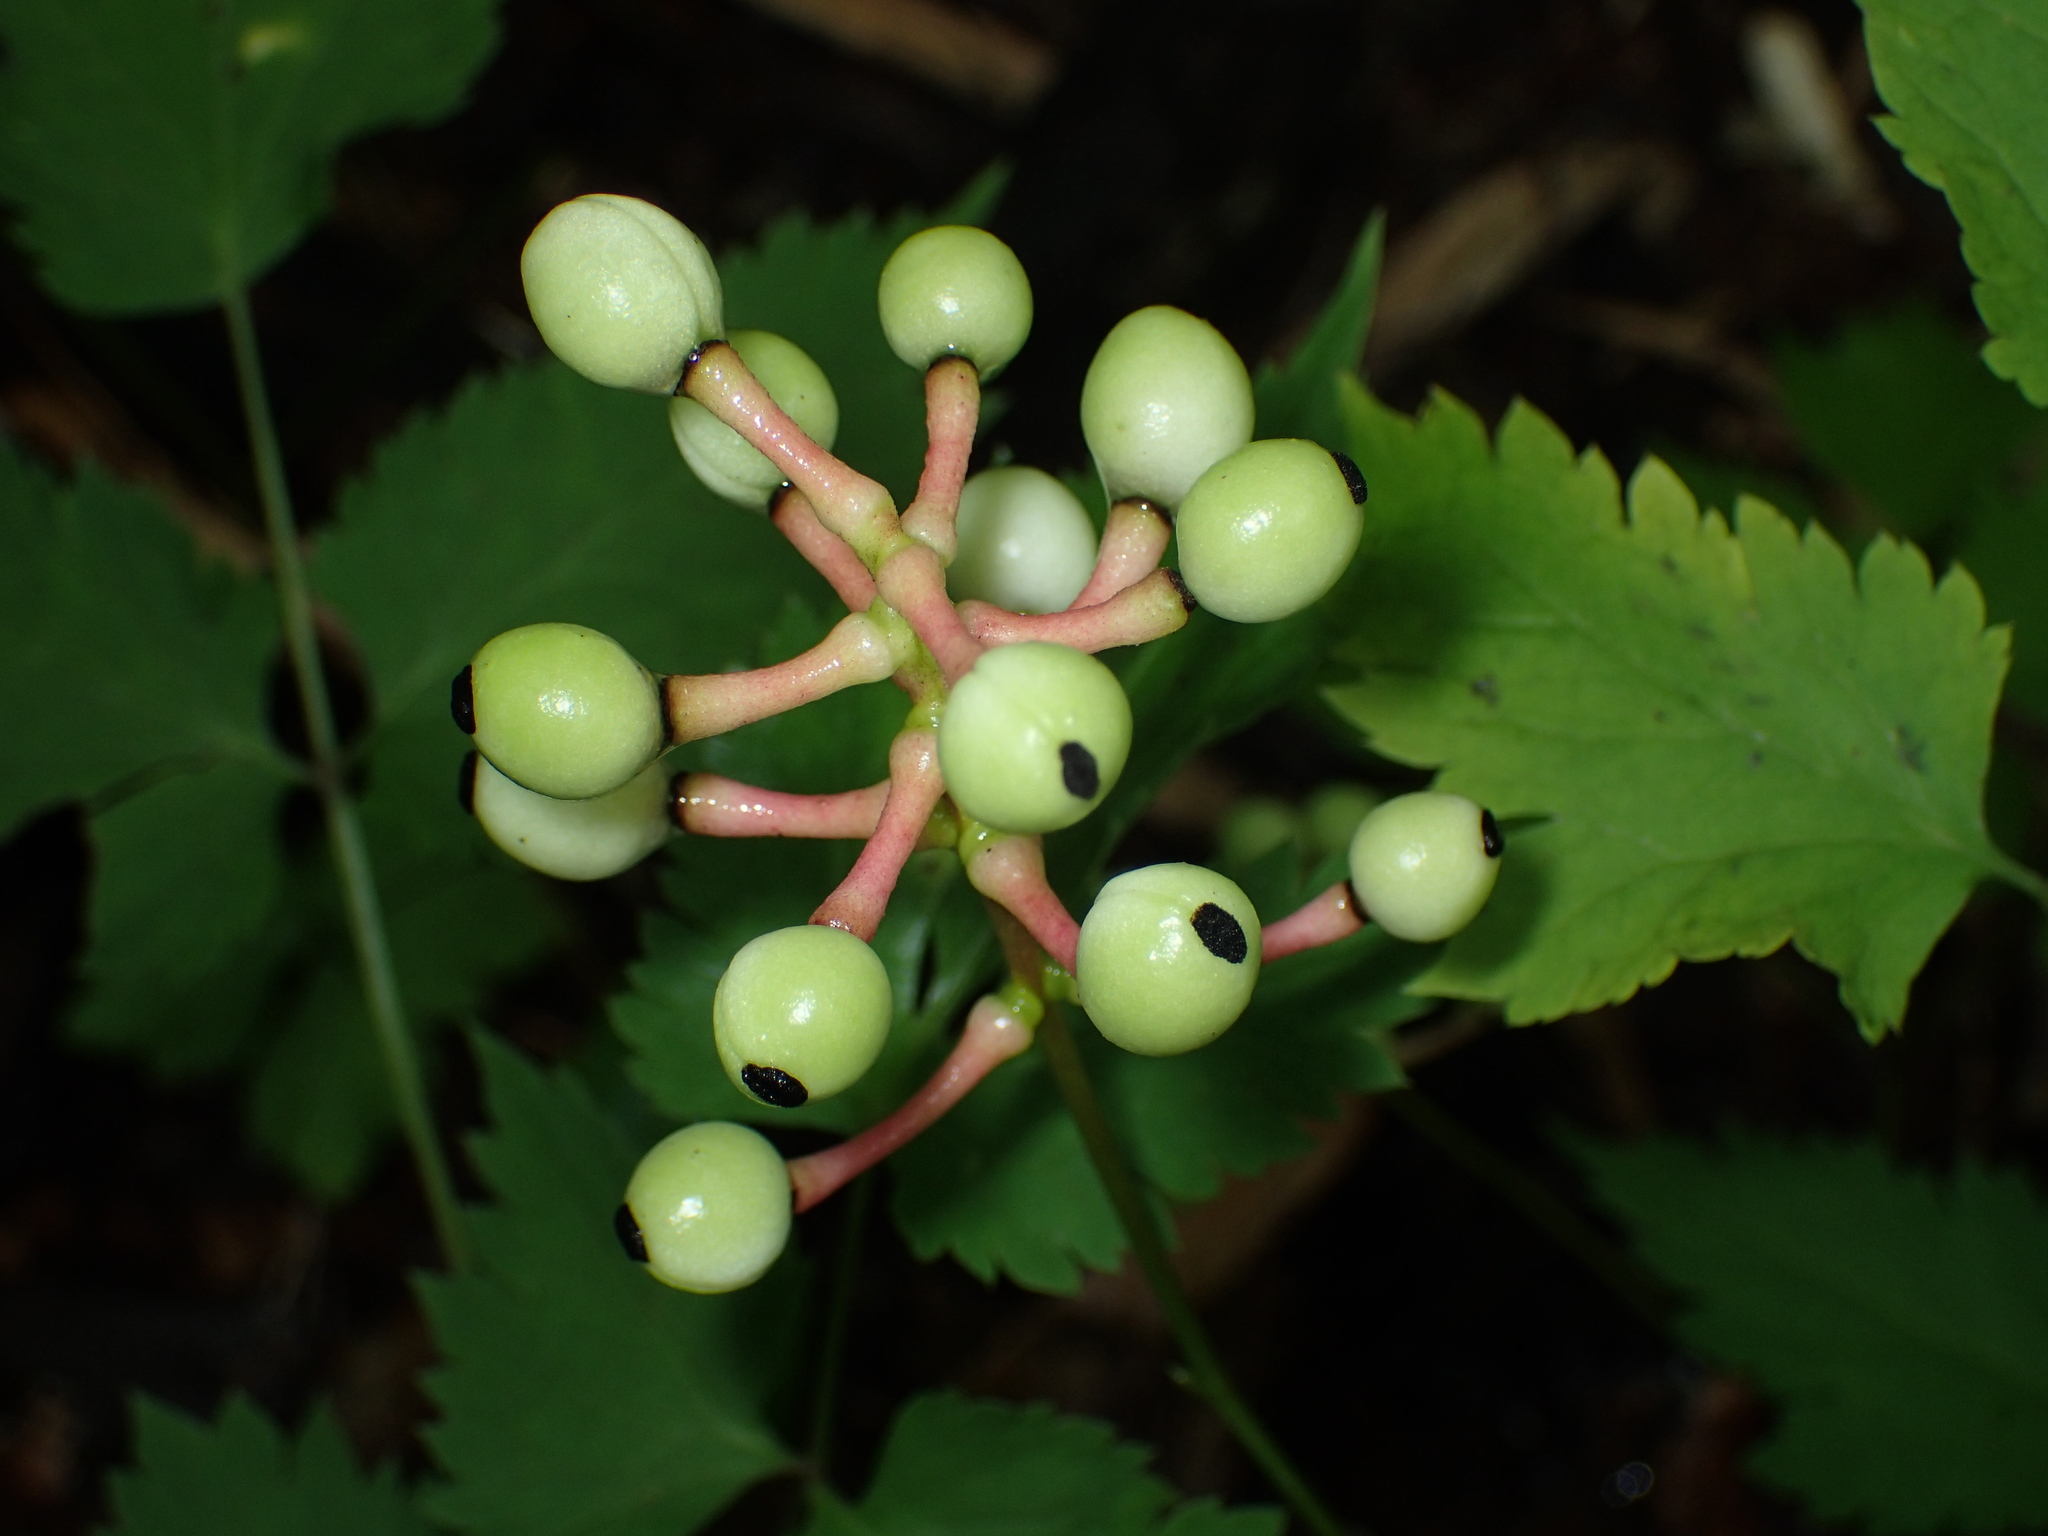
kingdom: Plantae
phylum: Tracheophyta
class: Magnoliopsida
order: Ranunculales
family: Ranunculaceae
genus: Actaea
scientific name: Actaea pachypoda
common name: Doll's-eyes
